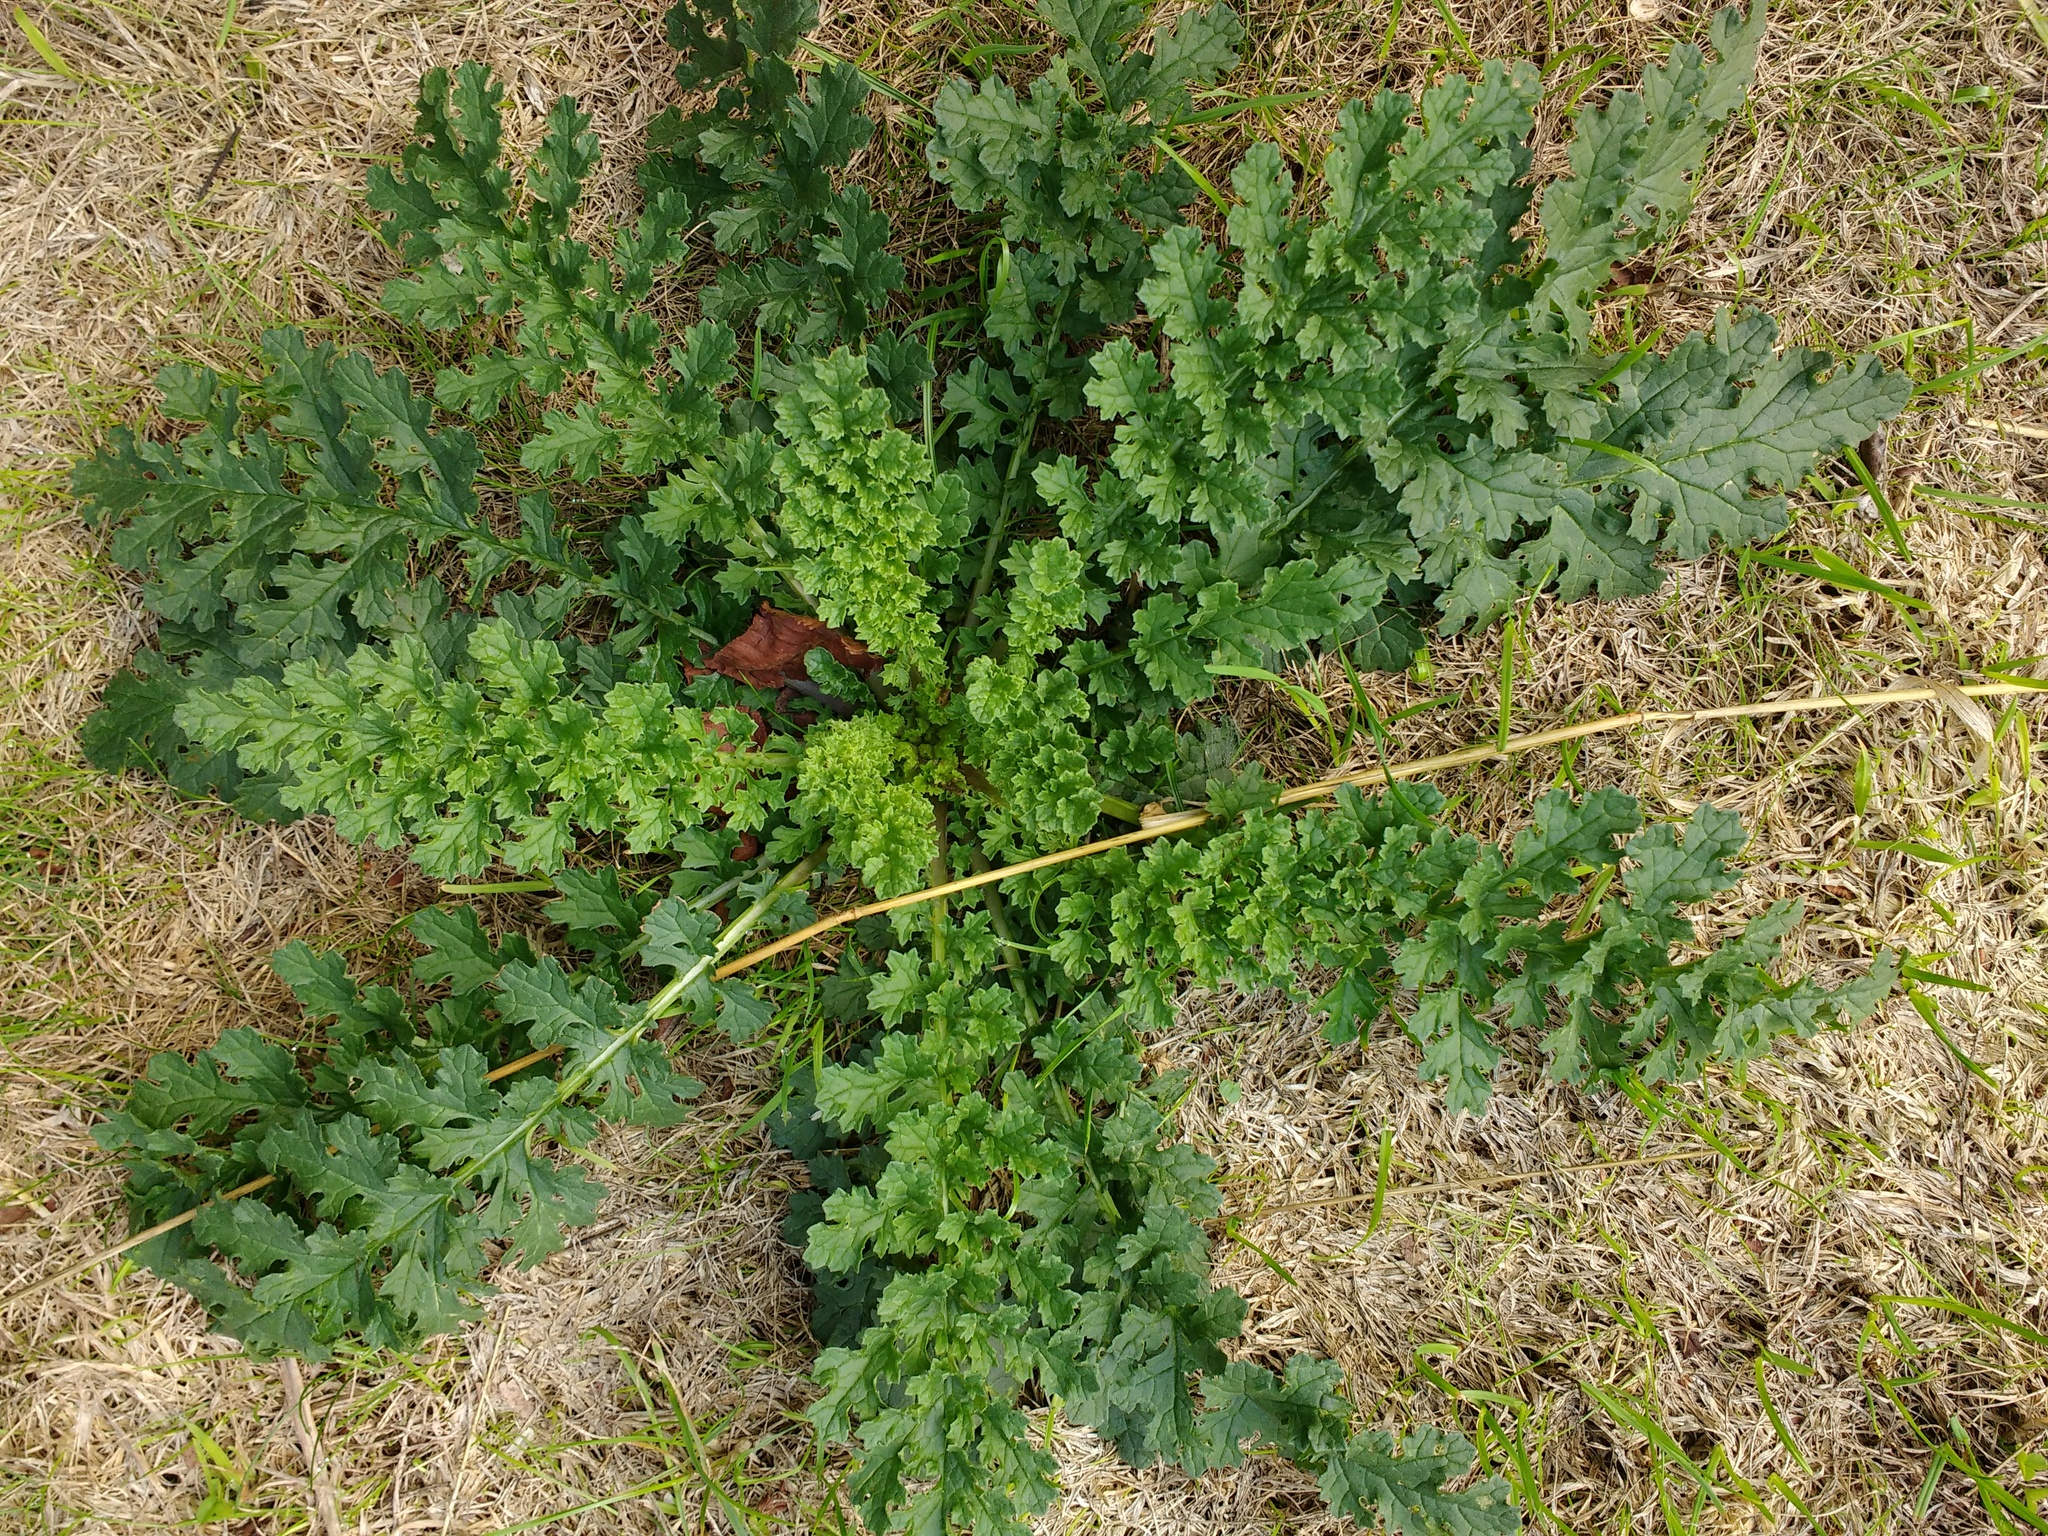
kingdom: Plantae
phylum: Tracheophyta
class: Magnoliopsida
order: Asterales
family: Asteraceae
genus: Jacobaea
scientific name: Jacobaea vulgaris
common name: Stinking willie
